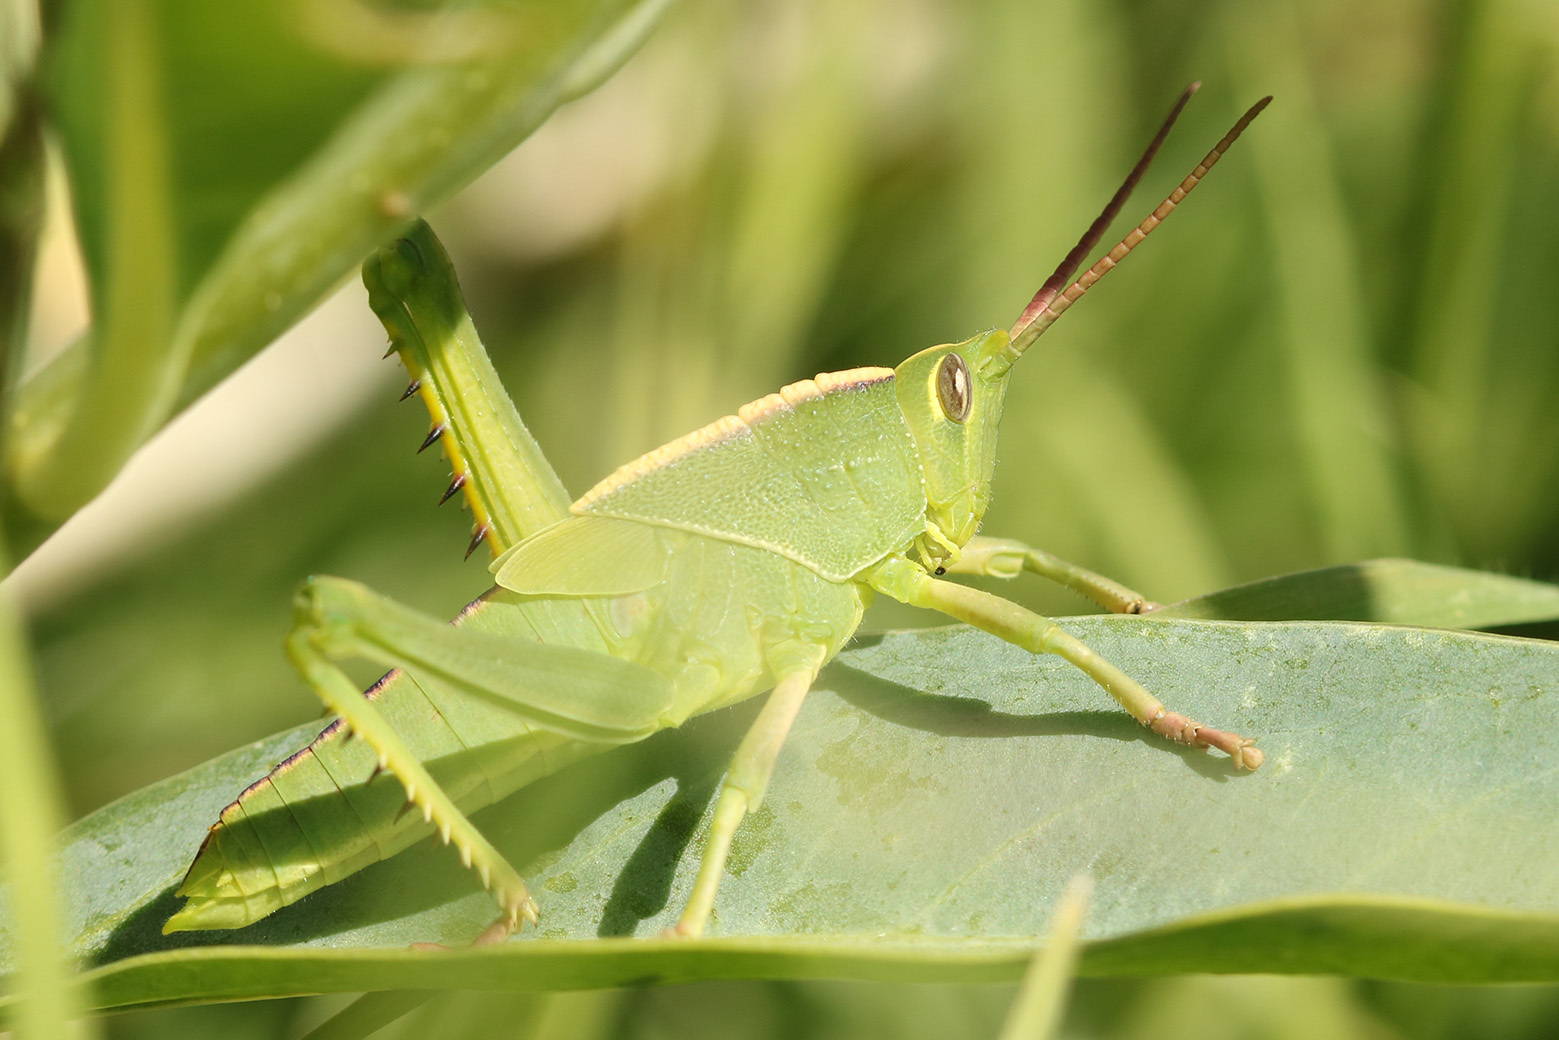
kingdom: Animalia
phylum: Arthropoda
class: Insecta
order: Orthoptera
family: Romaleidae
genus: Staleochlora
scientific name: Staleochlora viridicata
